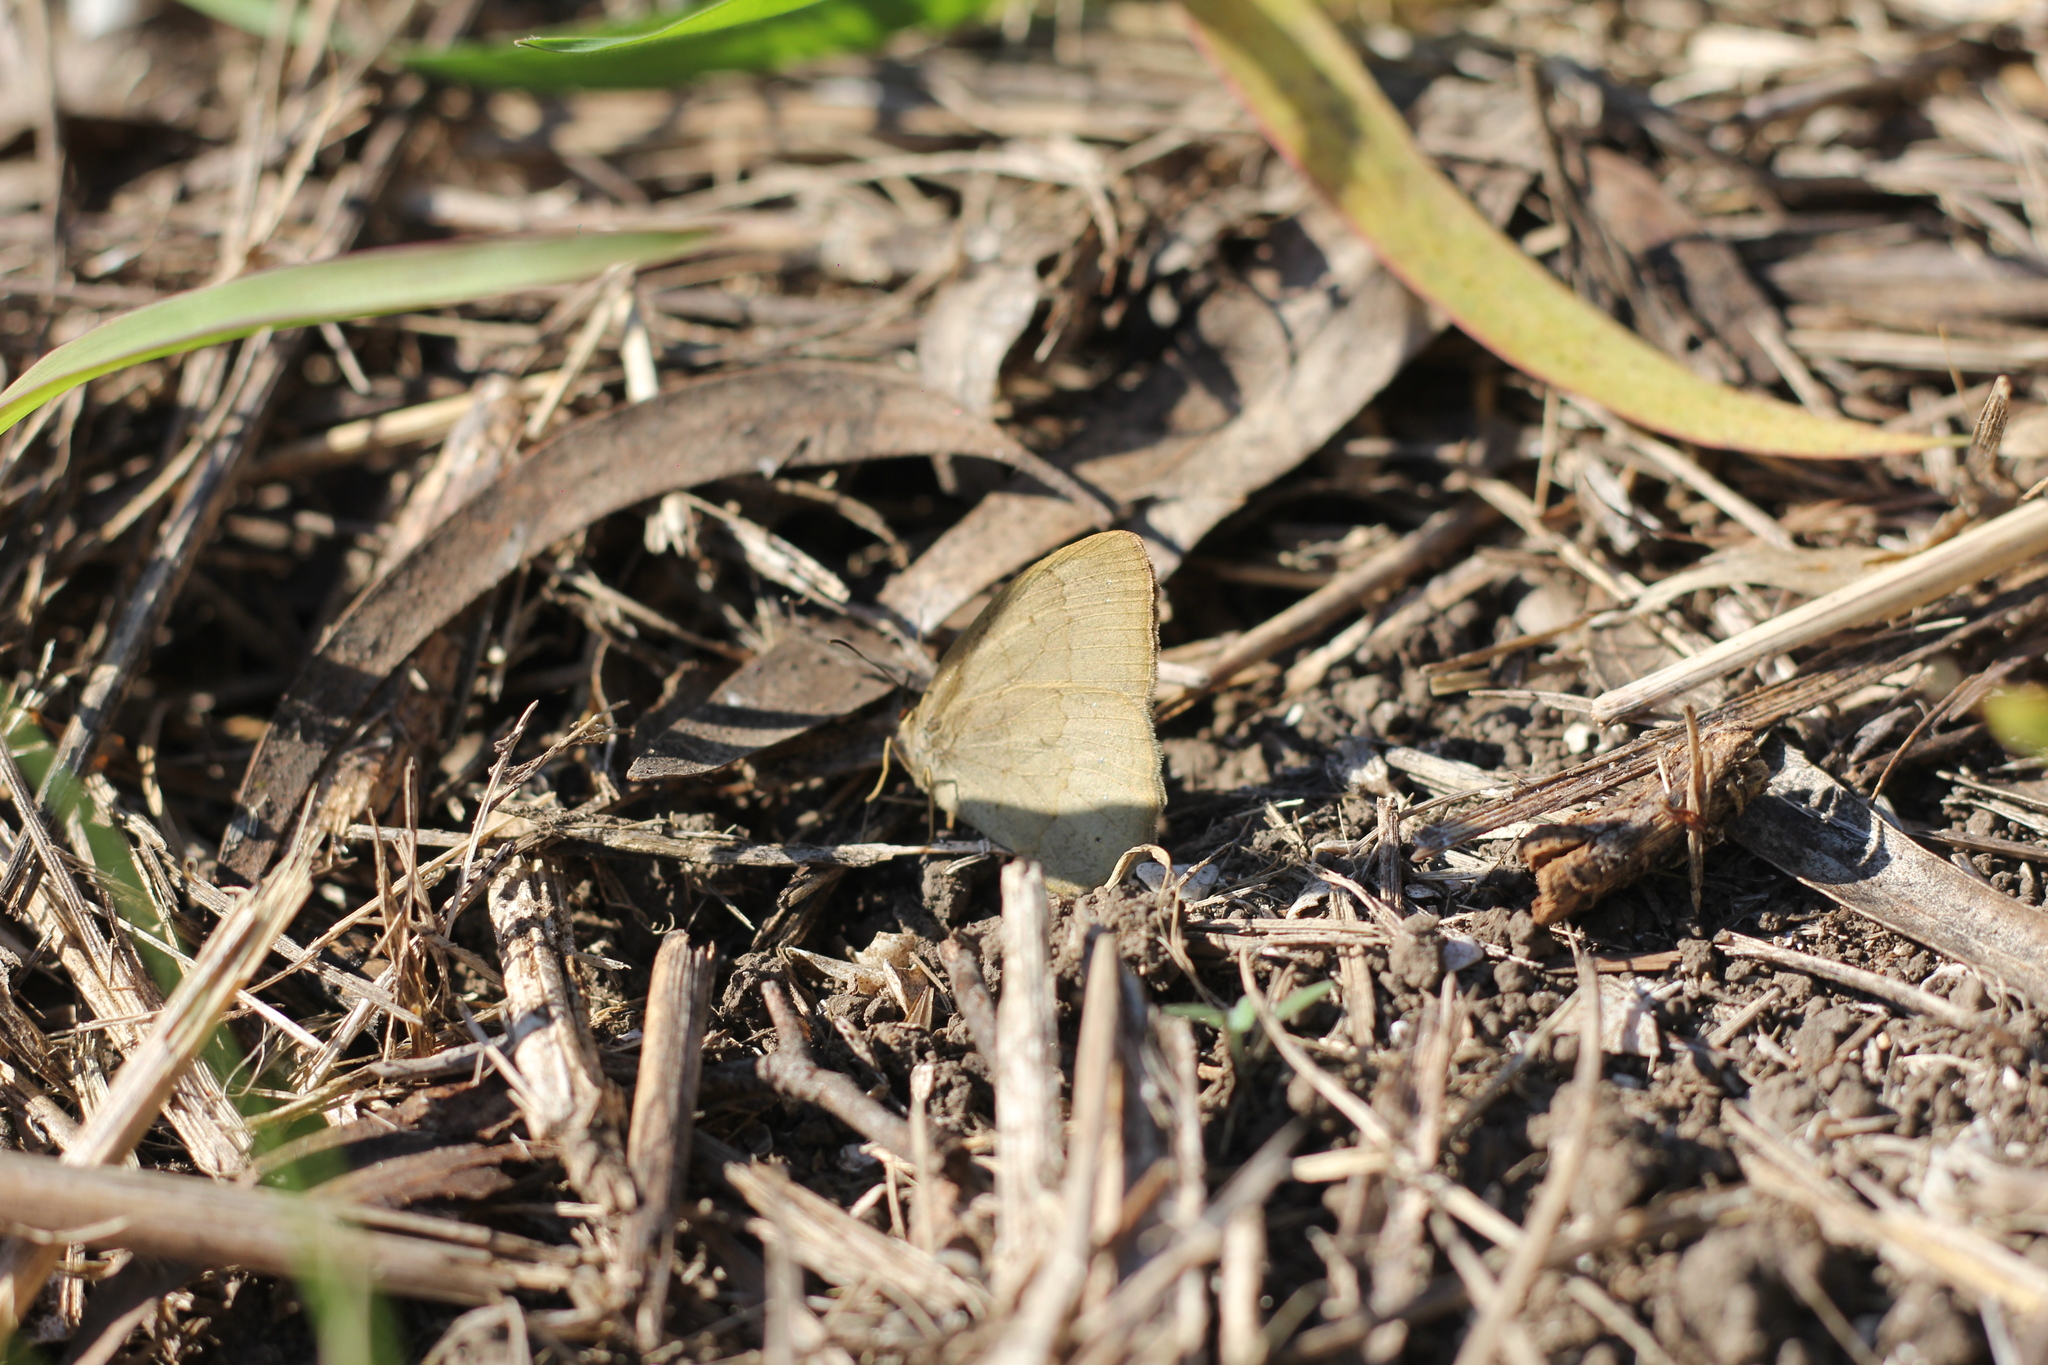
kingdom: Animalia
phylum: Arthropoda
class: Insecta
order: Lepidoptera
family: Nymphalidae
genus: Euptychia
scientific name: Euptychia
